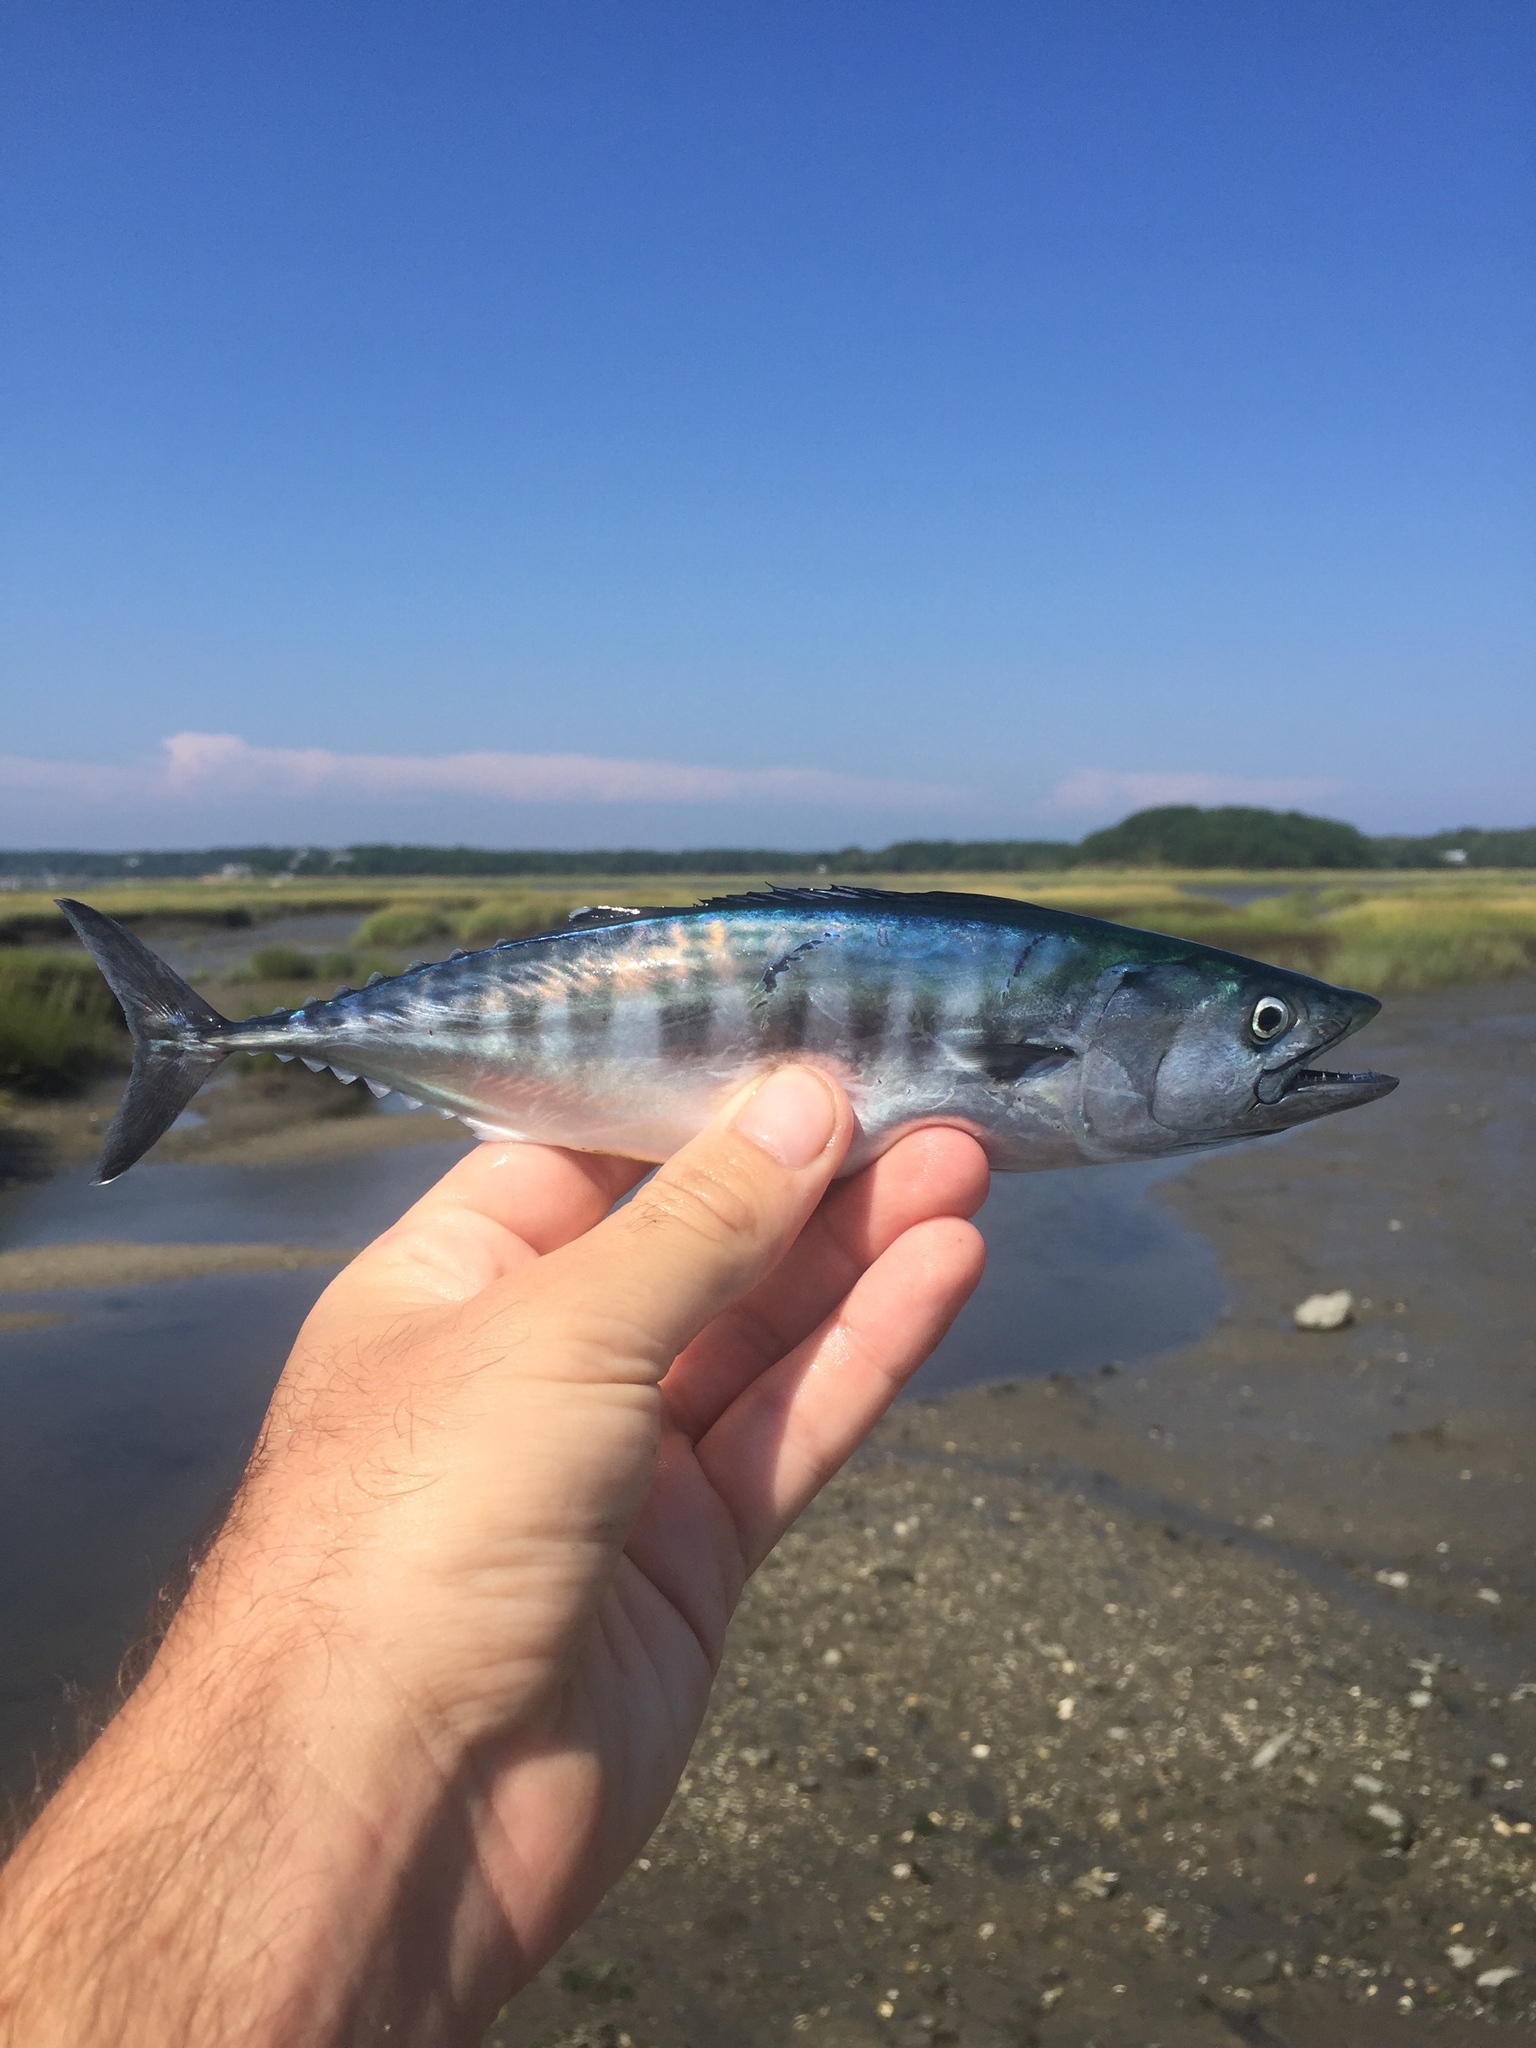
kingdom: Animalia
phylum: Chordata
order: Perciformes
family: Scombridae
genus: Sarda
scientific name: Sarda sarda
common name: Atlantic bonito
